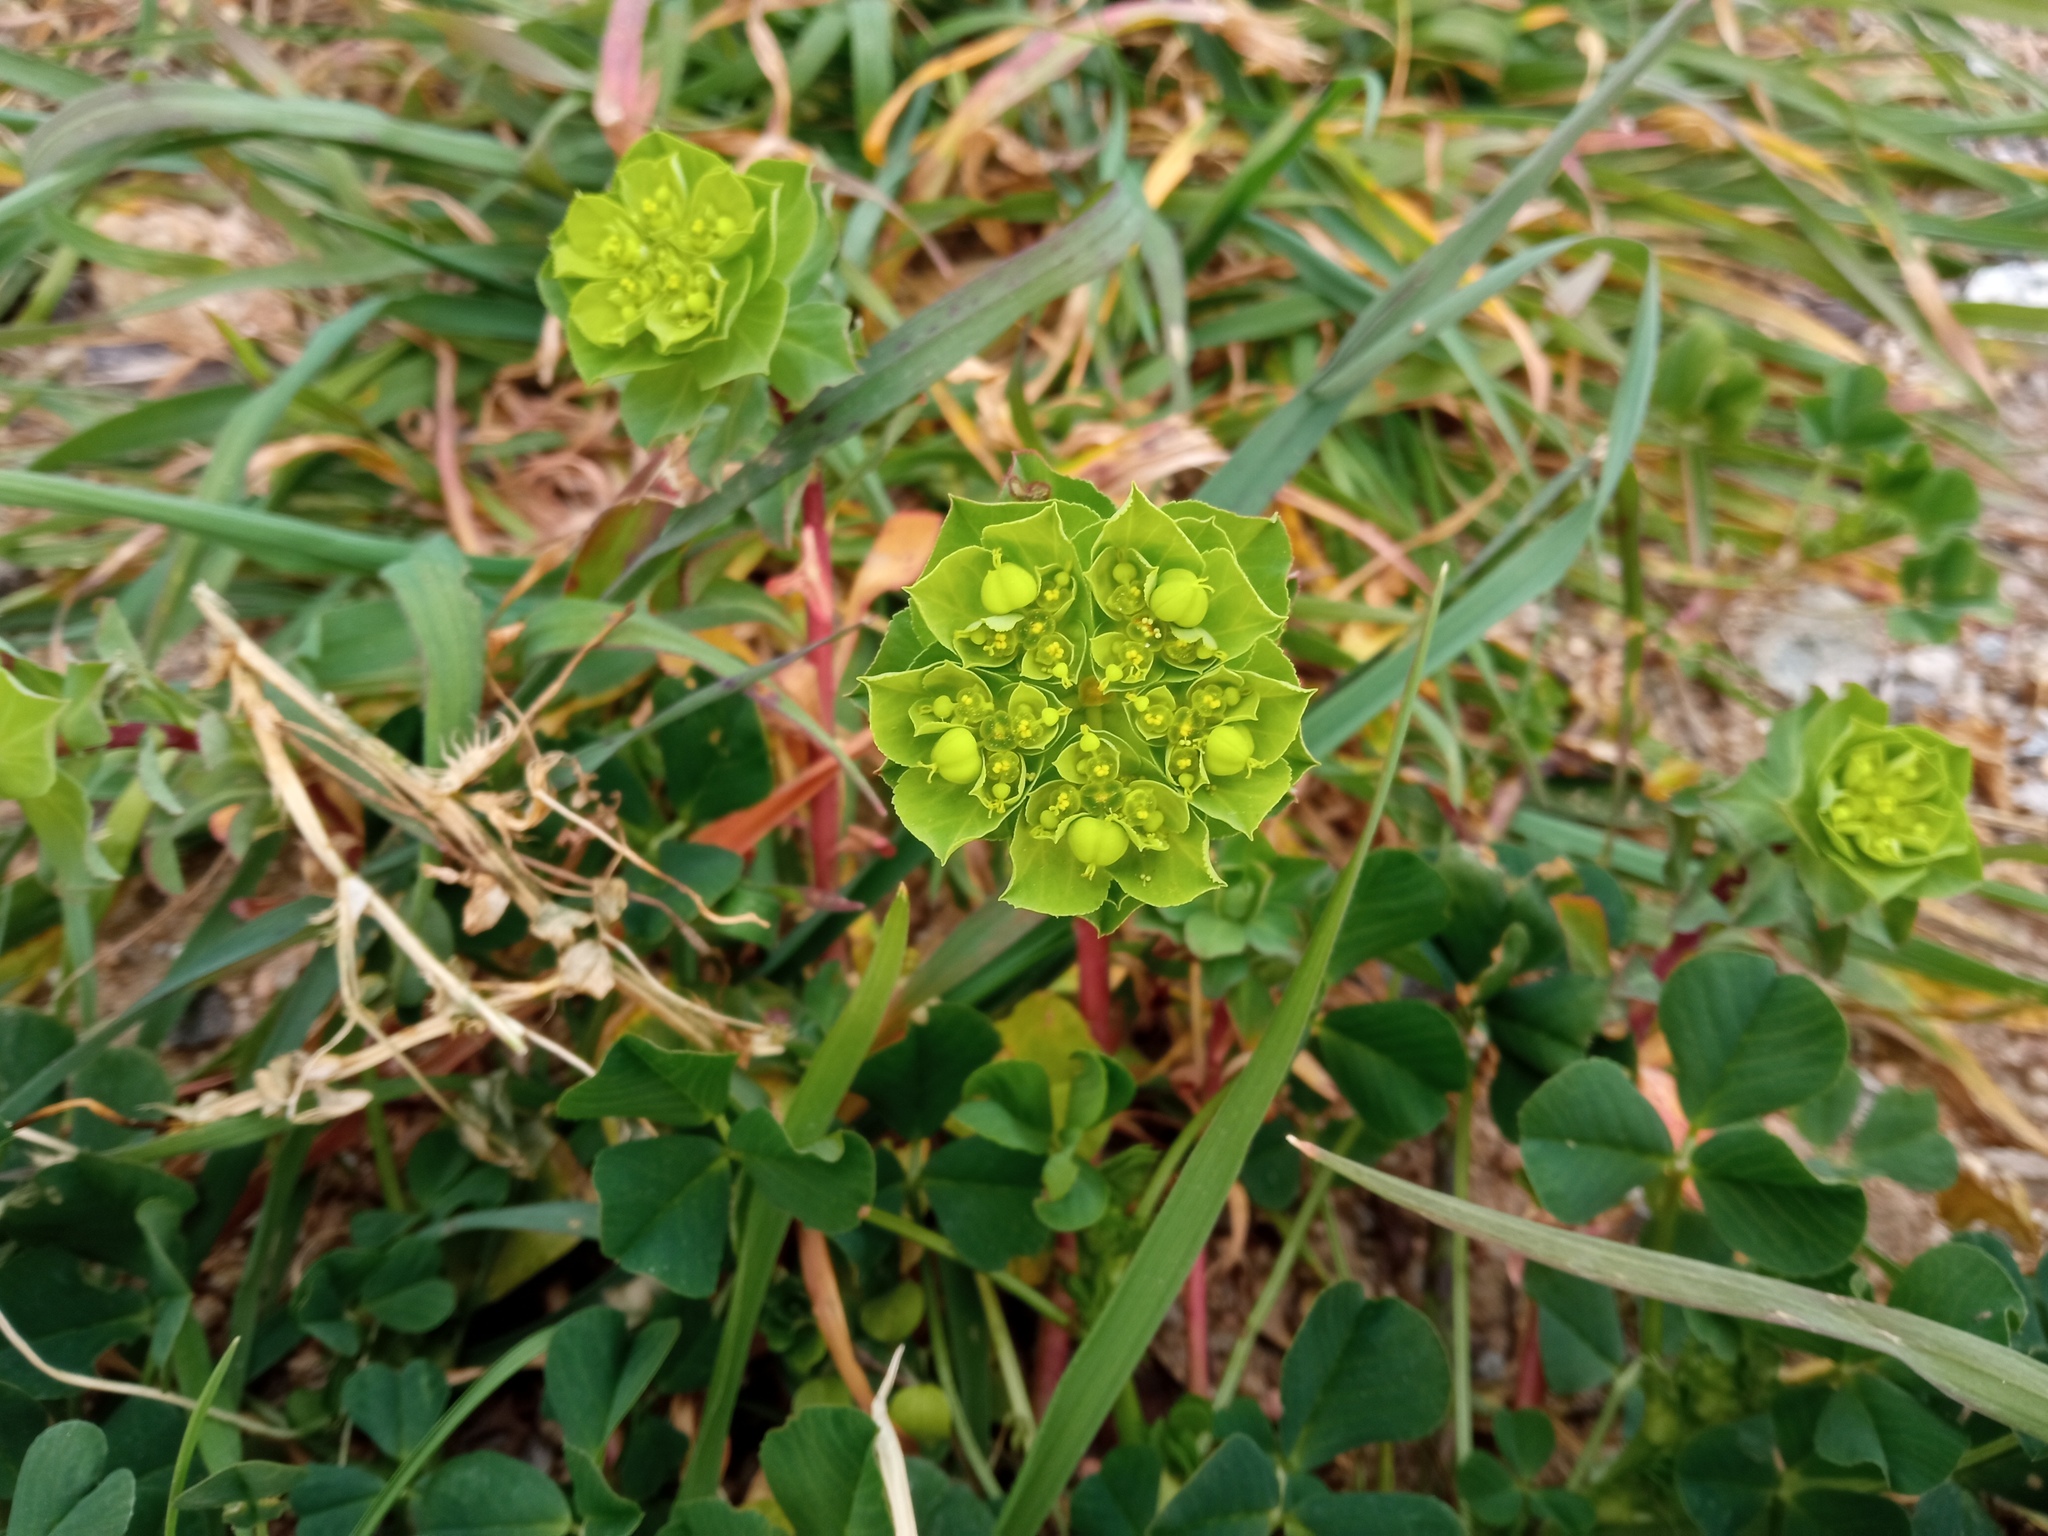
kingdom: Plantae
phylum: Tracheophyta
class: Magnoliopsida
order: Malpighiales
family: Euphorbiaceae
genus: Euphorbia
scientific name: Euphorbia helioscopia
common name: Sun spurge
